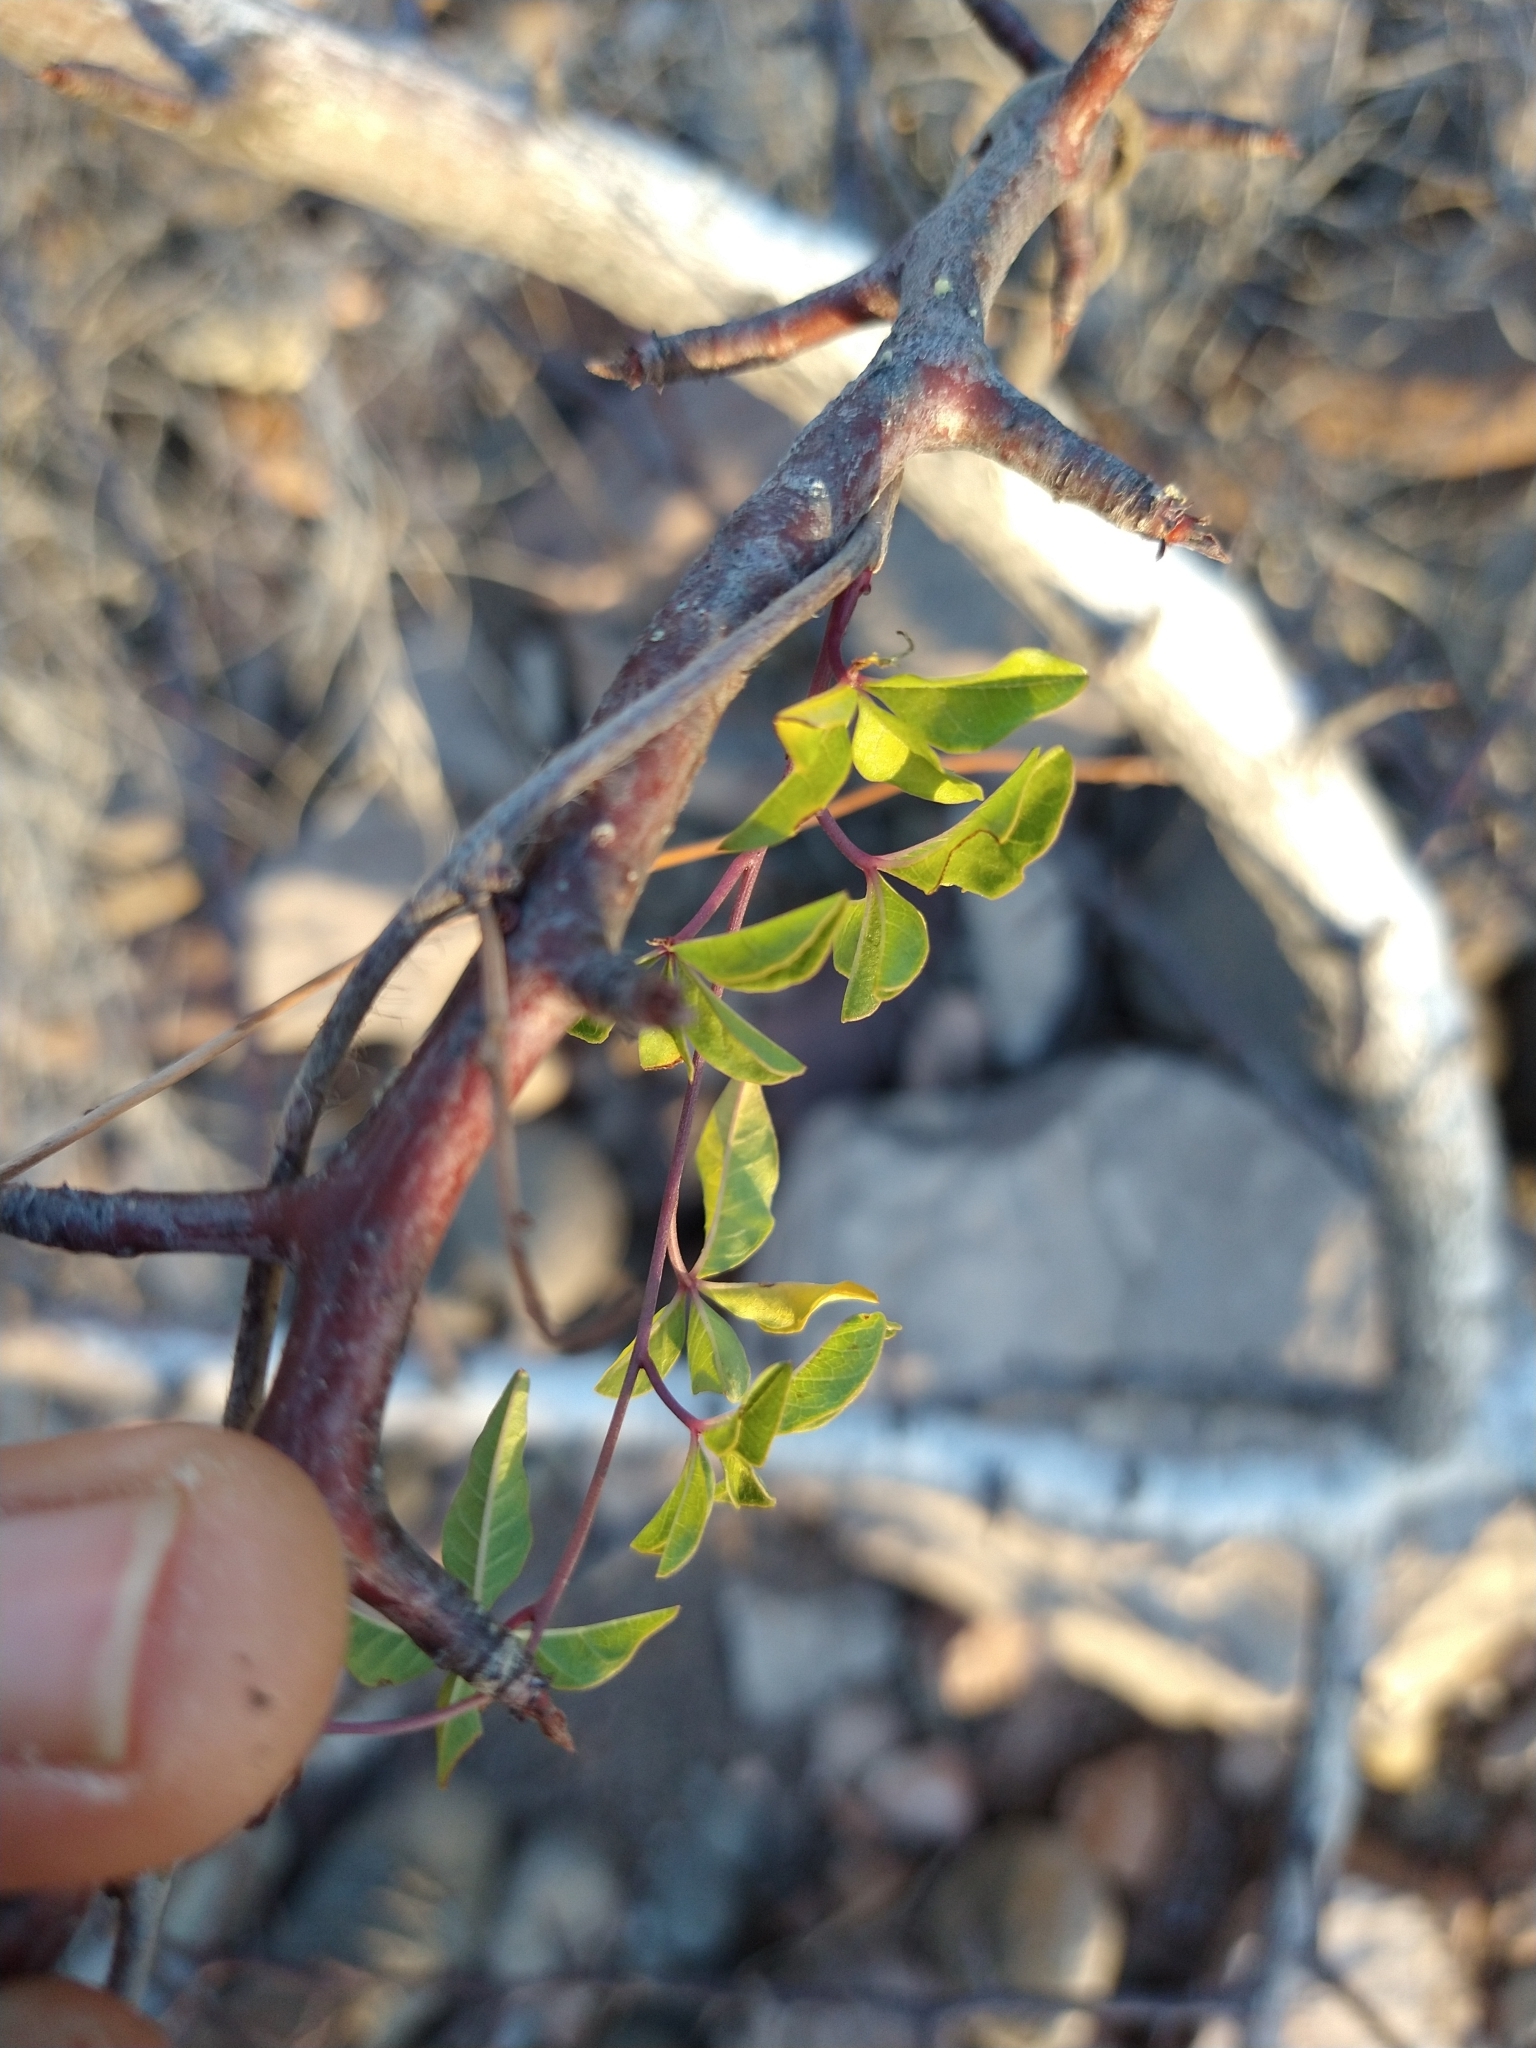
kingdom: Plantae
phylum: Tracheophyta
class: Magnoliopsida
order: Solanales
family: Convolvulaceae
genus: Distimake
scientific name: Distimake aureus
